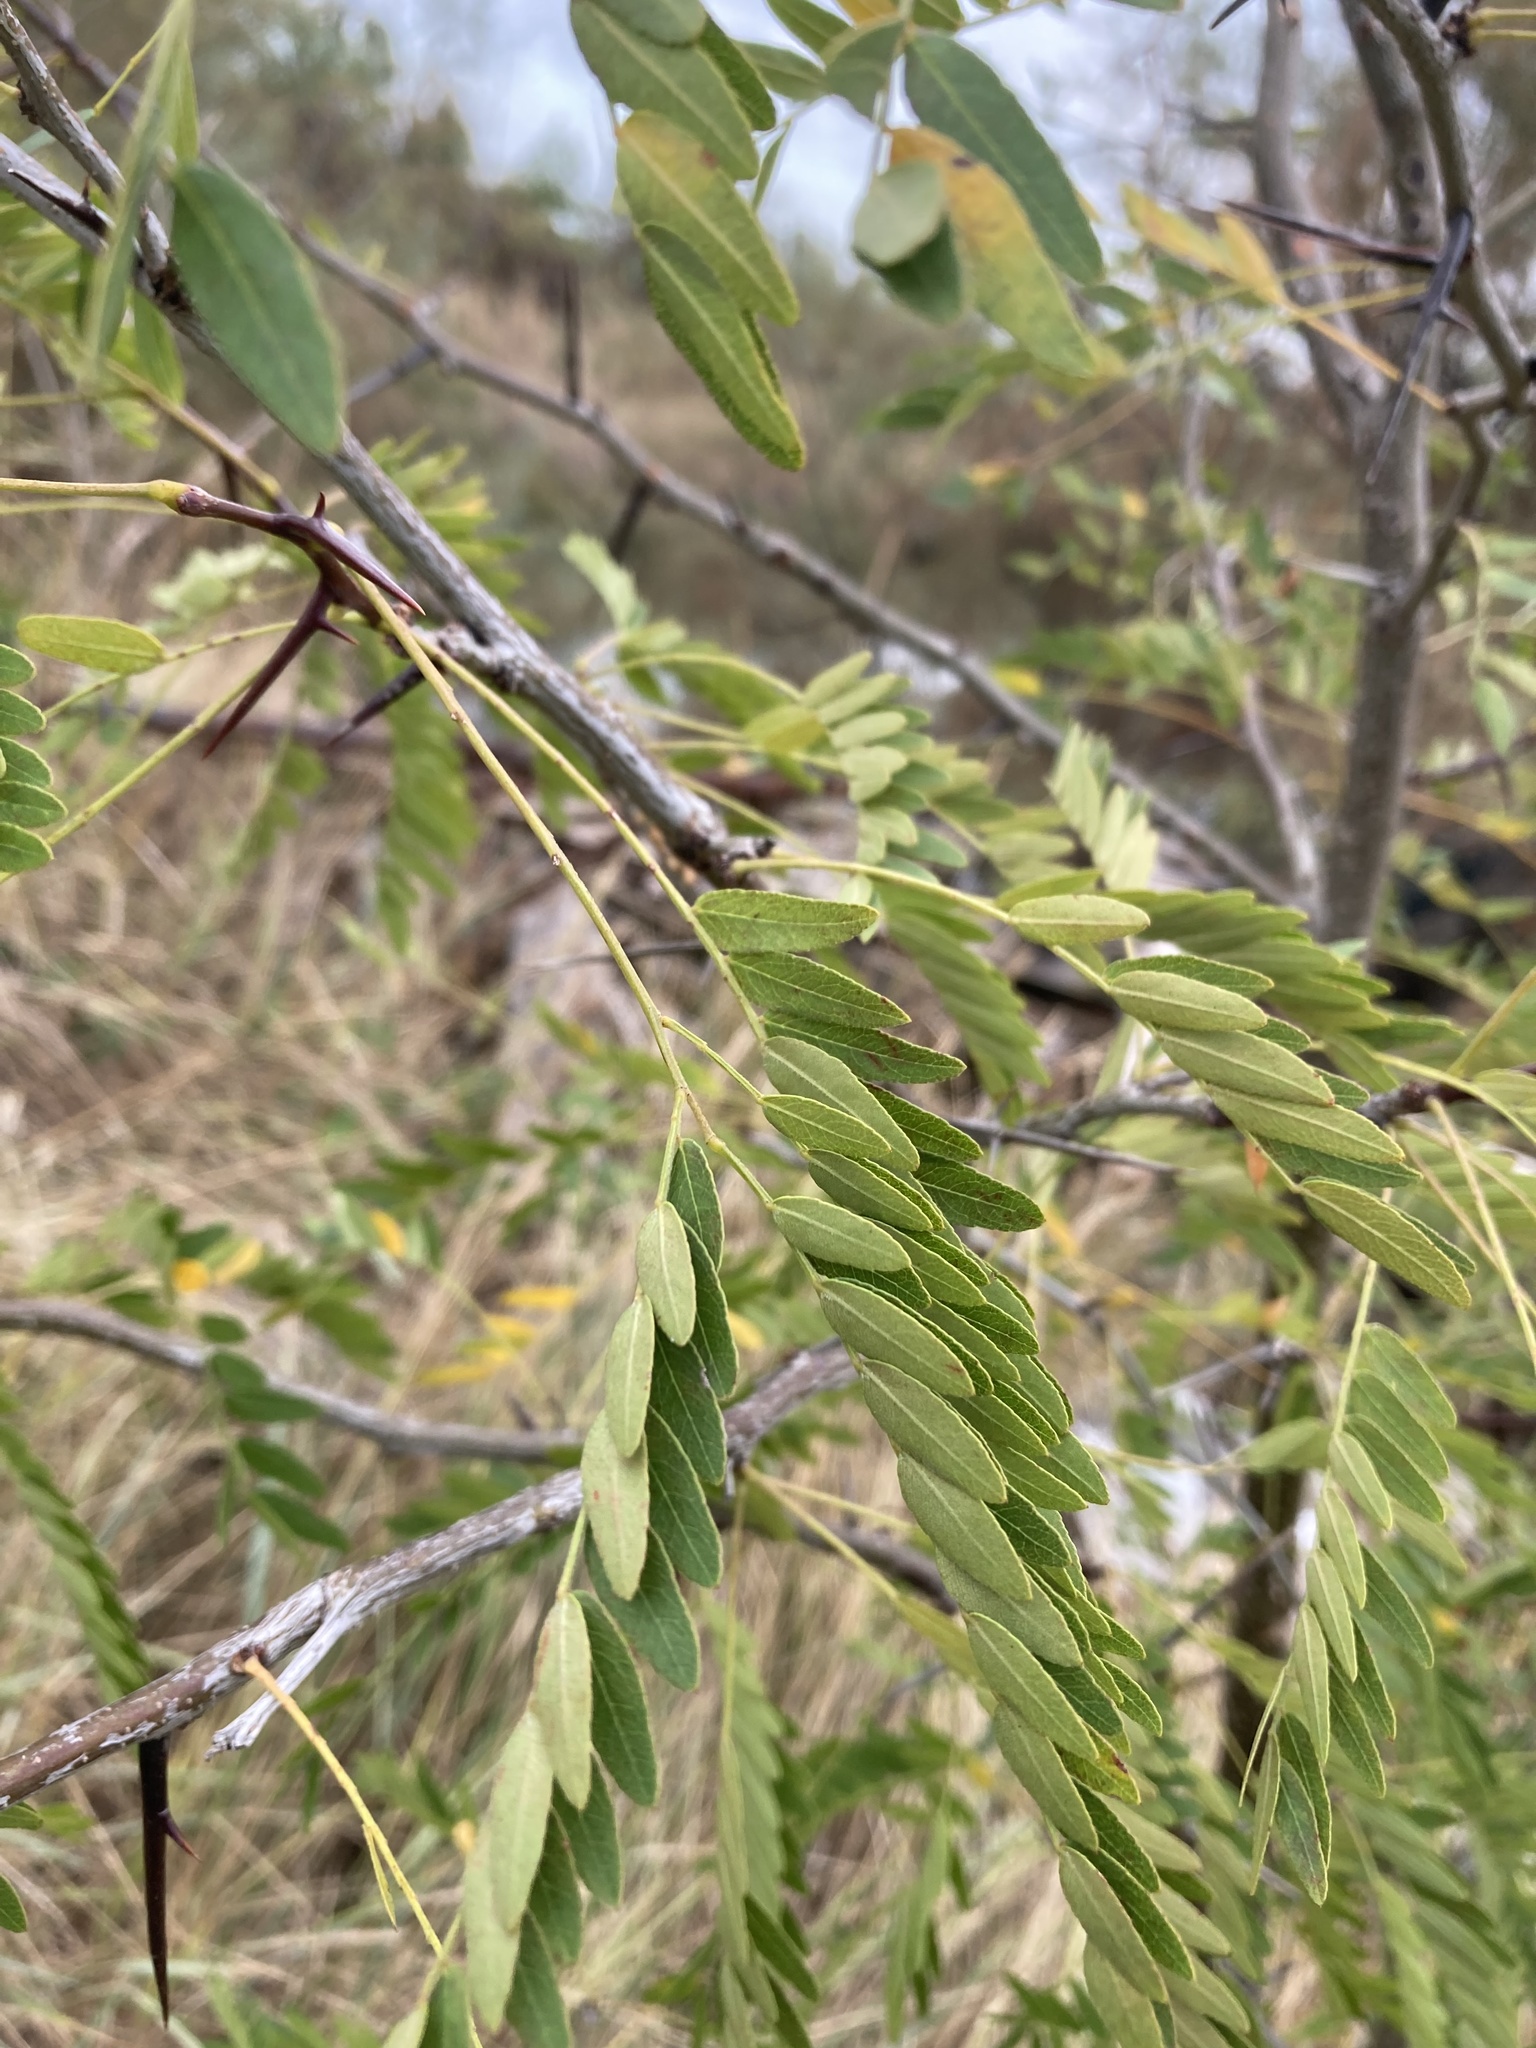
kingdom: Plantae
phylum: Tracheophyta
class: Magnoliopsida
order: Fabales
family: Fabaceae
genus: Gleditsia
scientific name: Gleditsia triacanthos
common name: Common honeylocust
